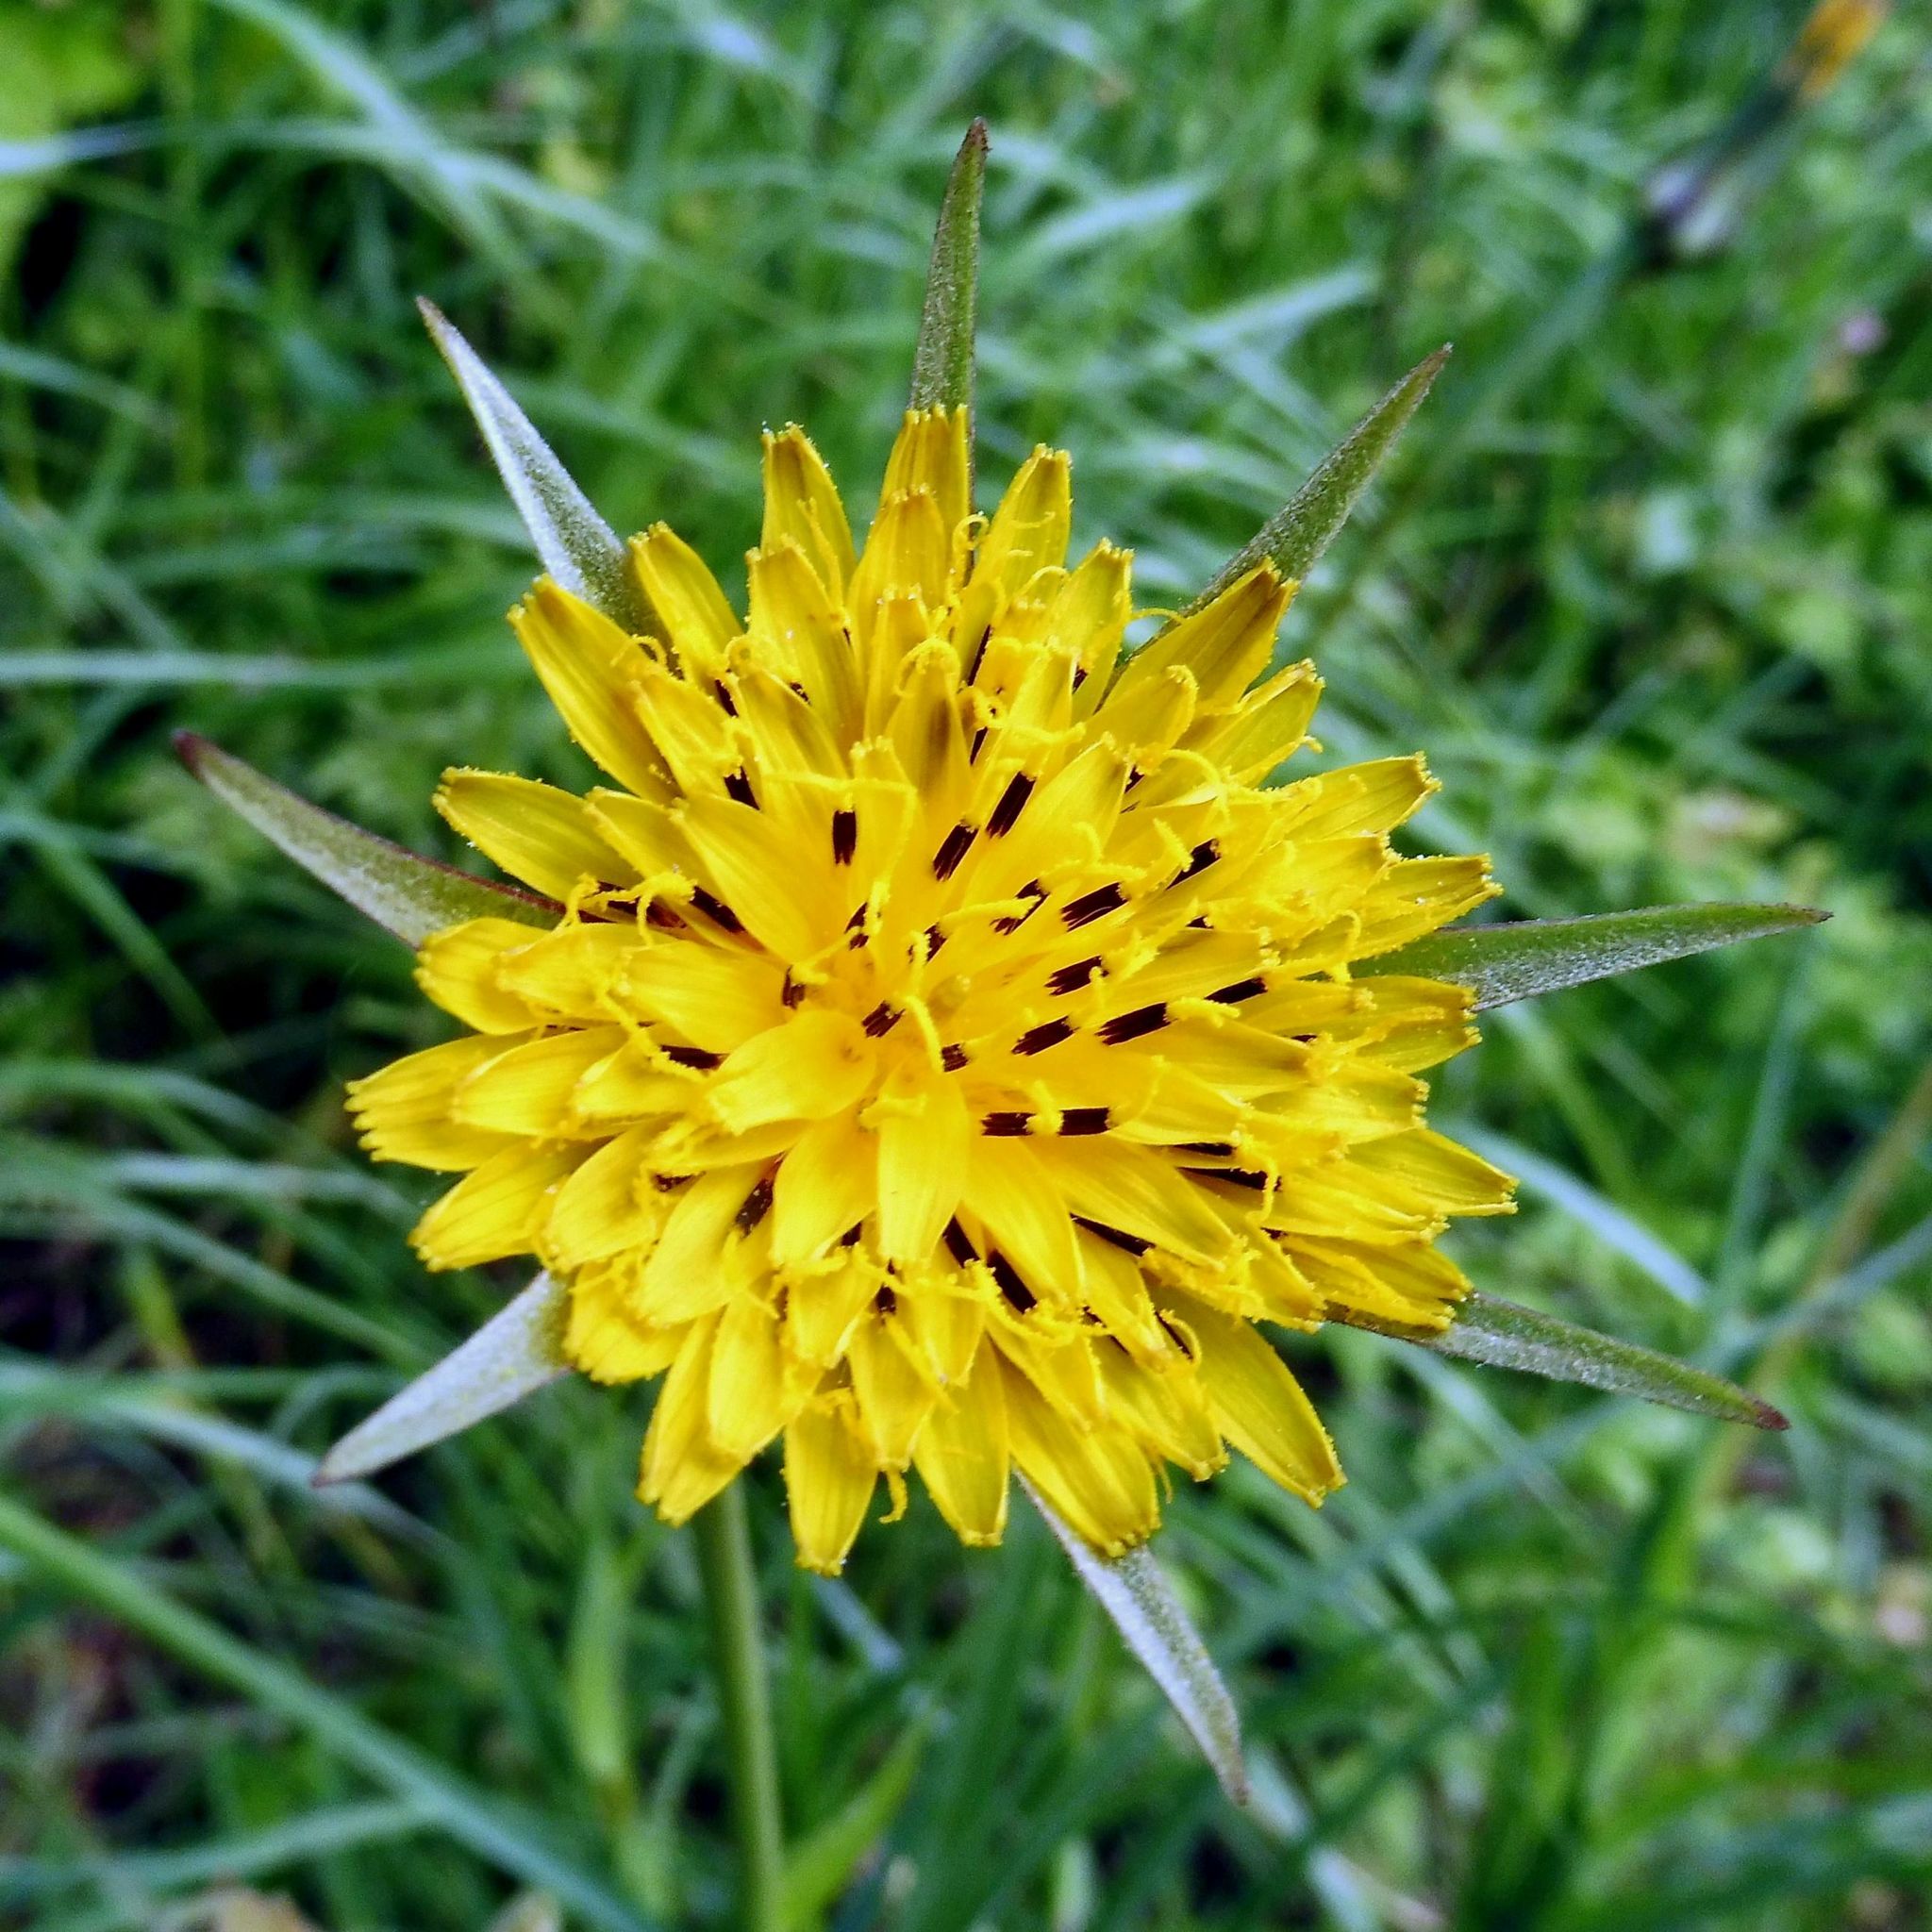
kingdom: Plantae
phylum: Tracheophyta
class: Magnoliopsida
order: Asterales
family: Asteraceae
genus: Tragopogon
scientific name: Tragopogon pratensis
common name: Goat's-beard
